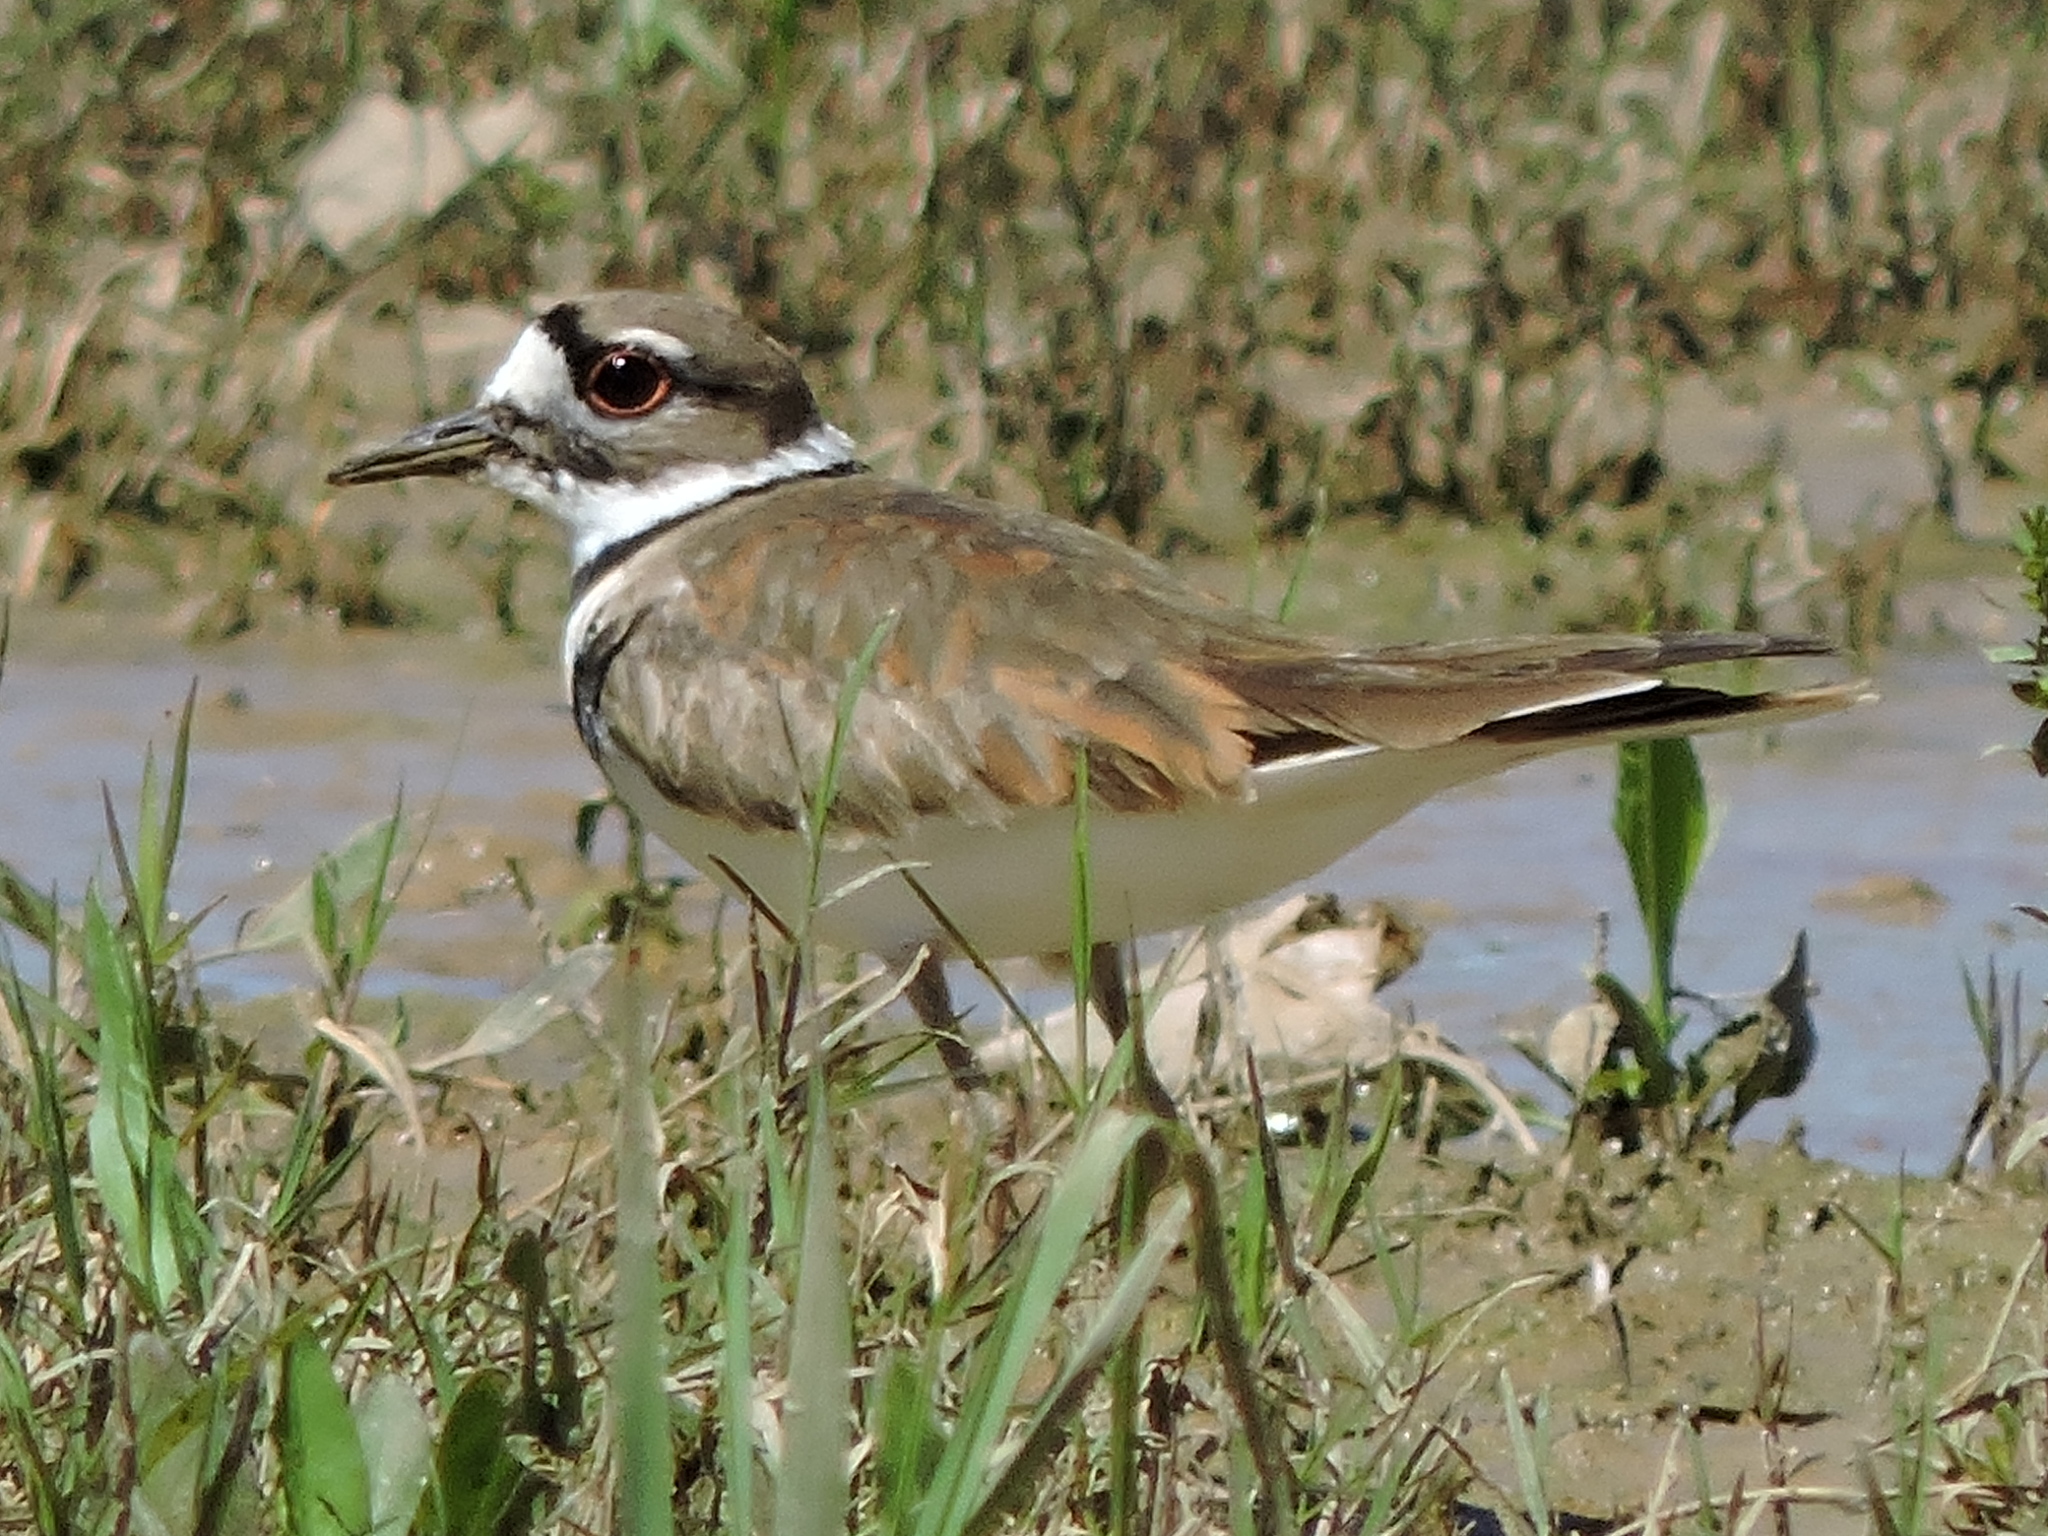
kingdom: Animalia
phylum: Chordata
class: Aves
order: Charadriiformes
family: Charadriidae
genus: Charadrius
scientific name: Charadrius vociferus
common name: Killdeer
